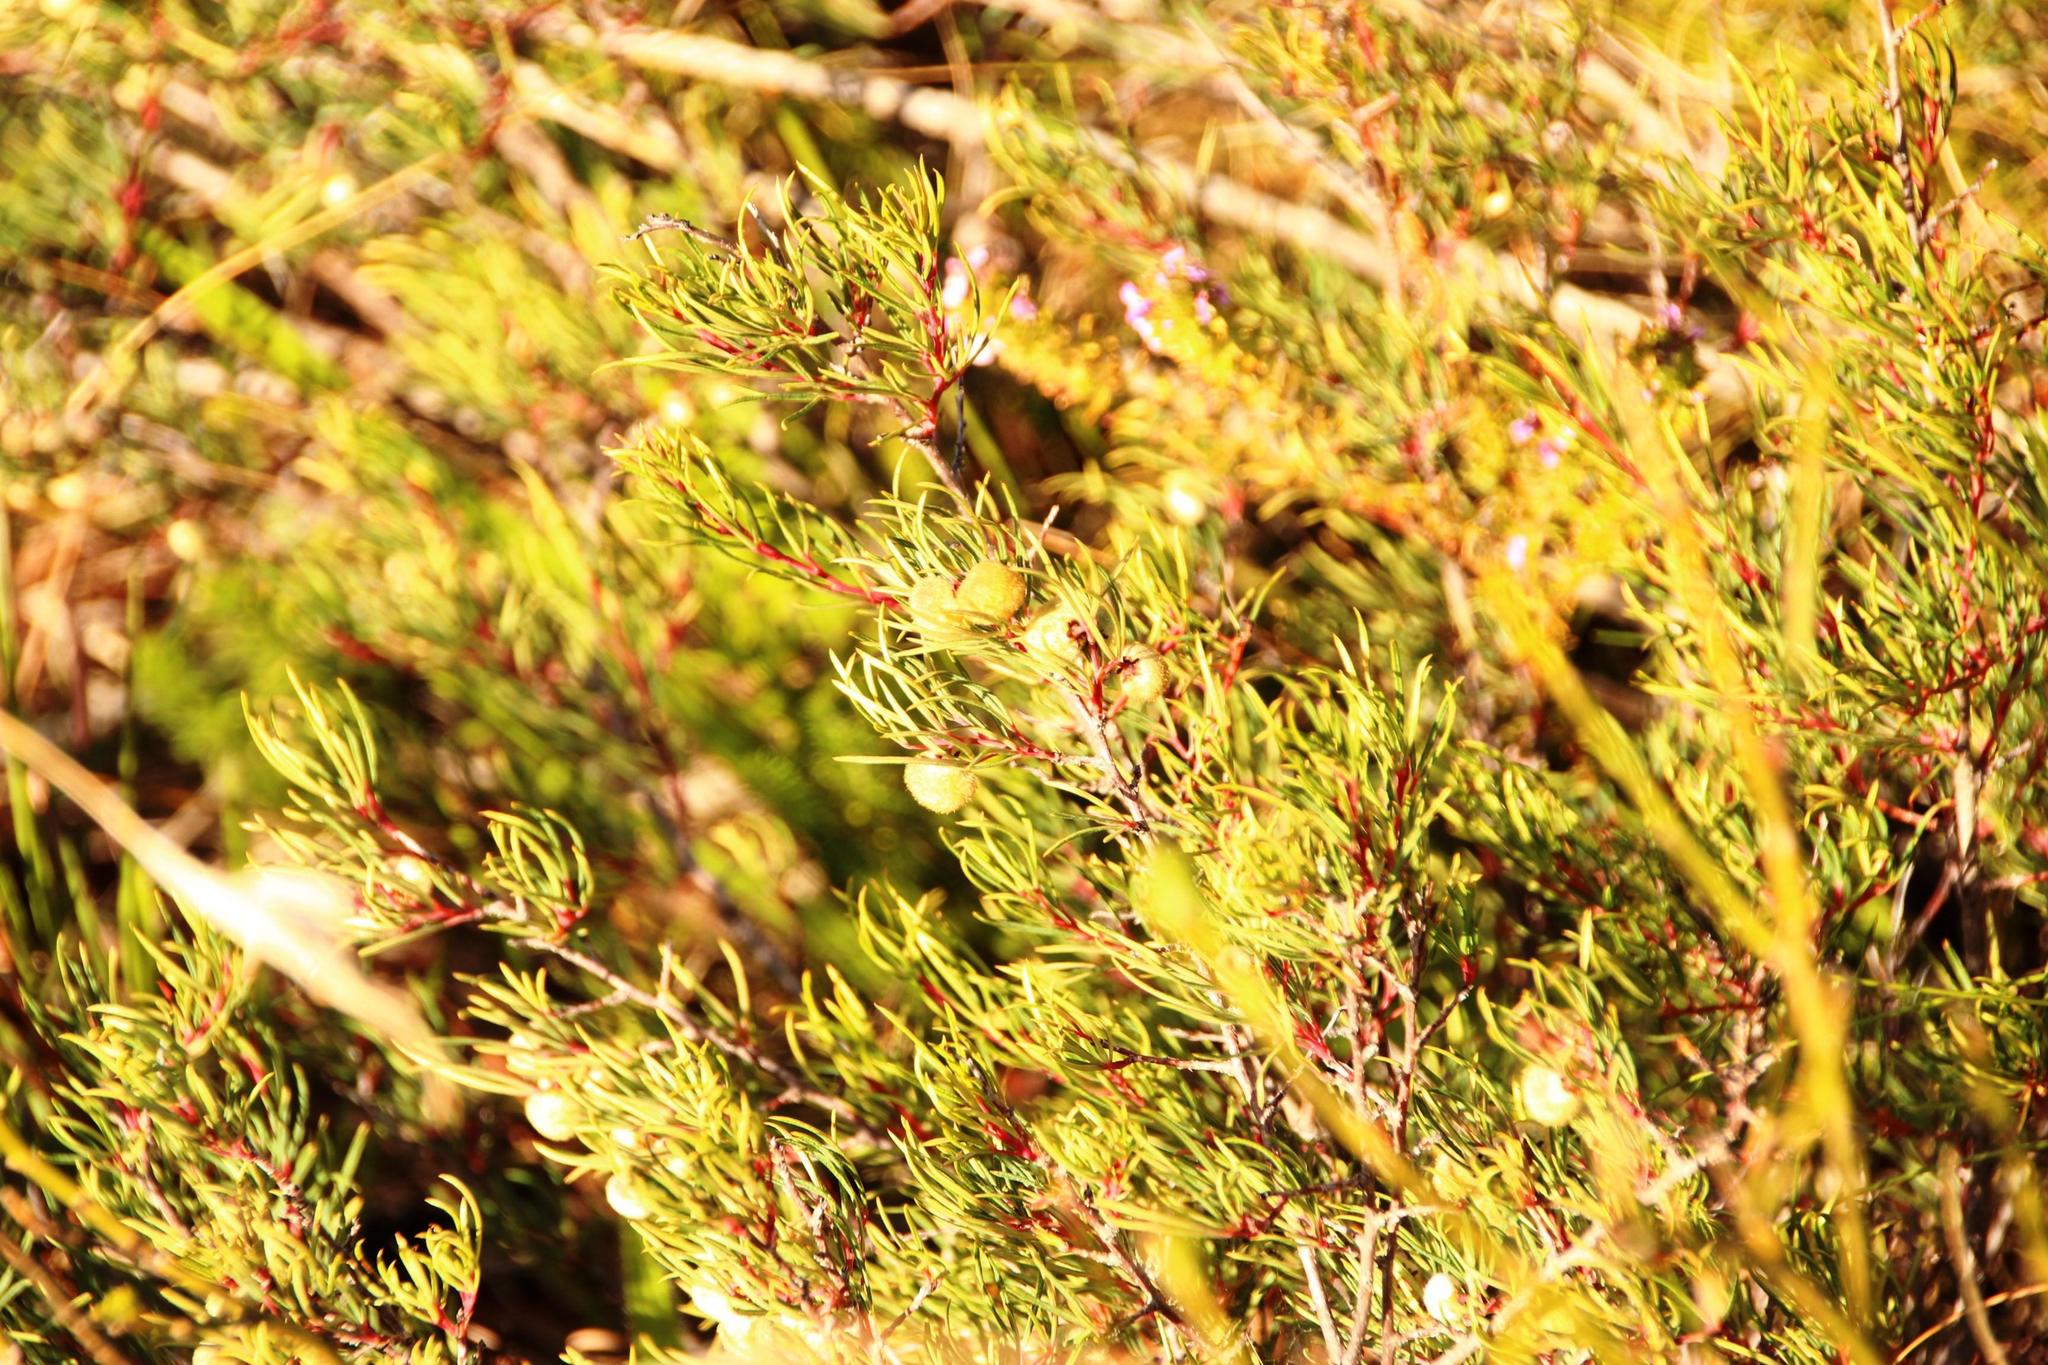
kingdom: Plantae
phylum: Tracheophyta
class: Magnoliopsida
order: Sapindales
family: Anacardiaceae
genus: Searsia
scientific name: Searsia rosmarinifolia
